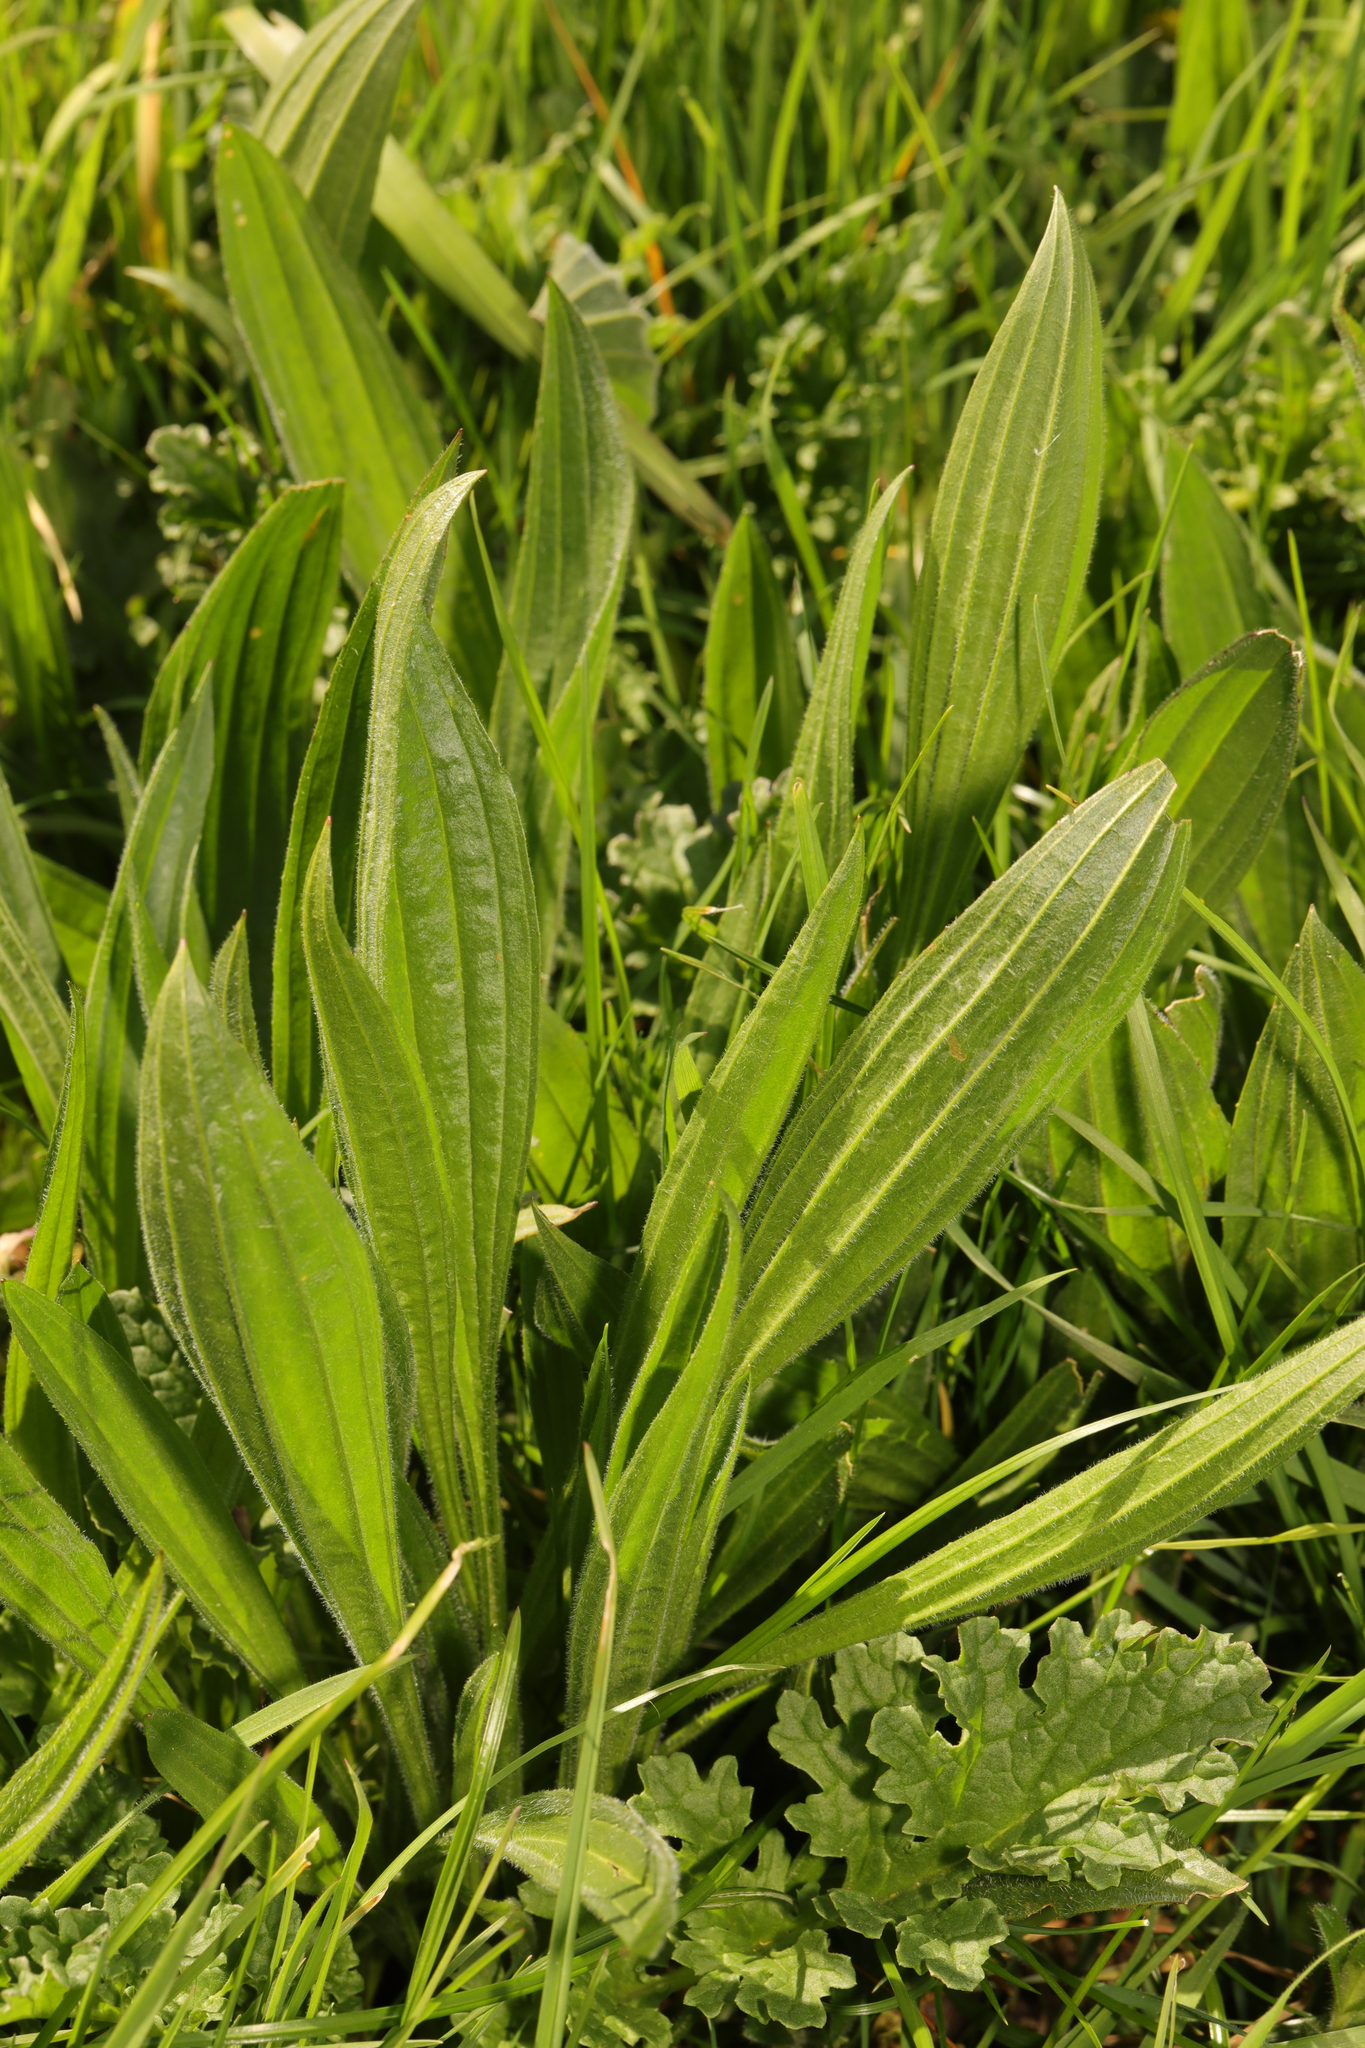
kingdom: Plantae
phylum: Tracheophyta
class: Magnoliopsida
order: Lamiales
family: Plantaginaceae
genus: Plantago
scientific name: Plantago lanceolata
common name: Ribwort plantain
